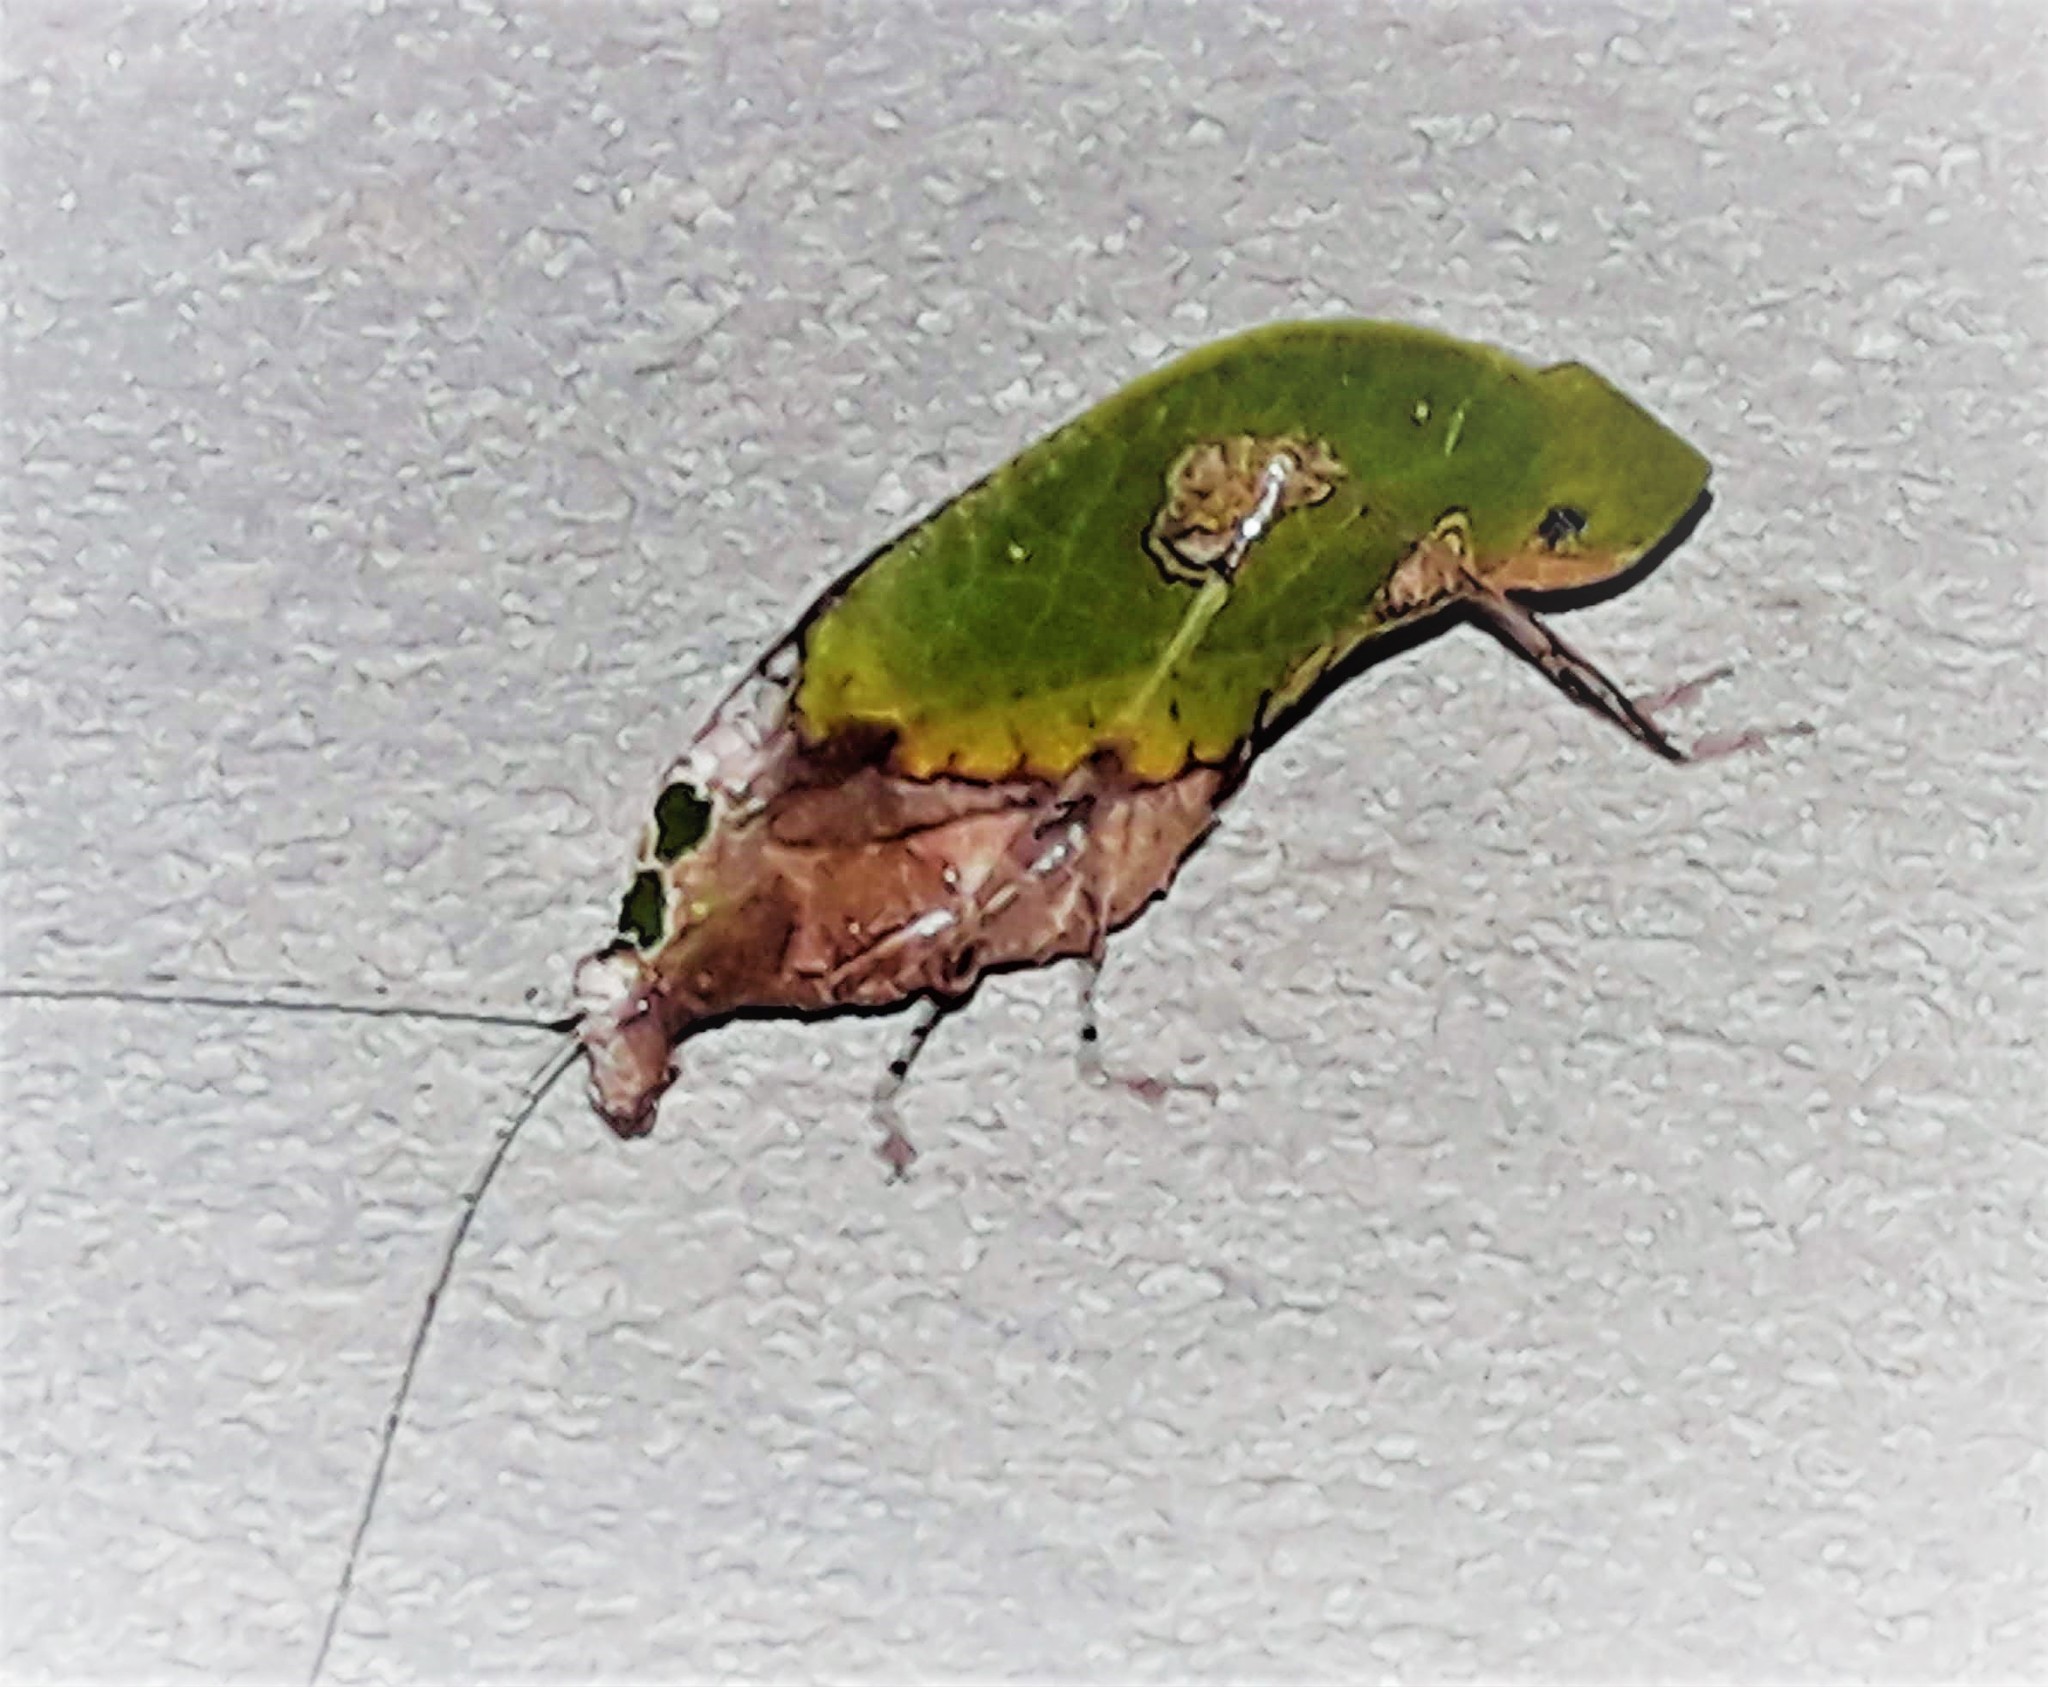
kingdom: Animalia
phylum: Arthropoda
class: Insecta
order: Orthoptera
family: Tettigoniidae
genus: Pycnopalpa
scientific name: Pycnopalpa bicordata
